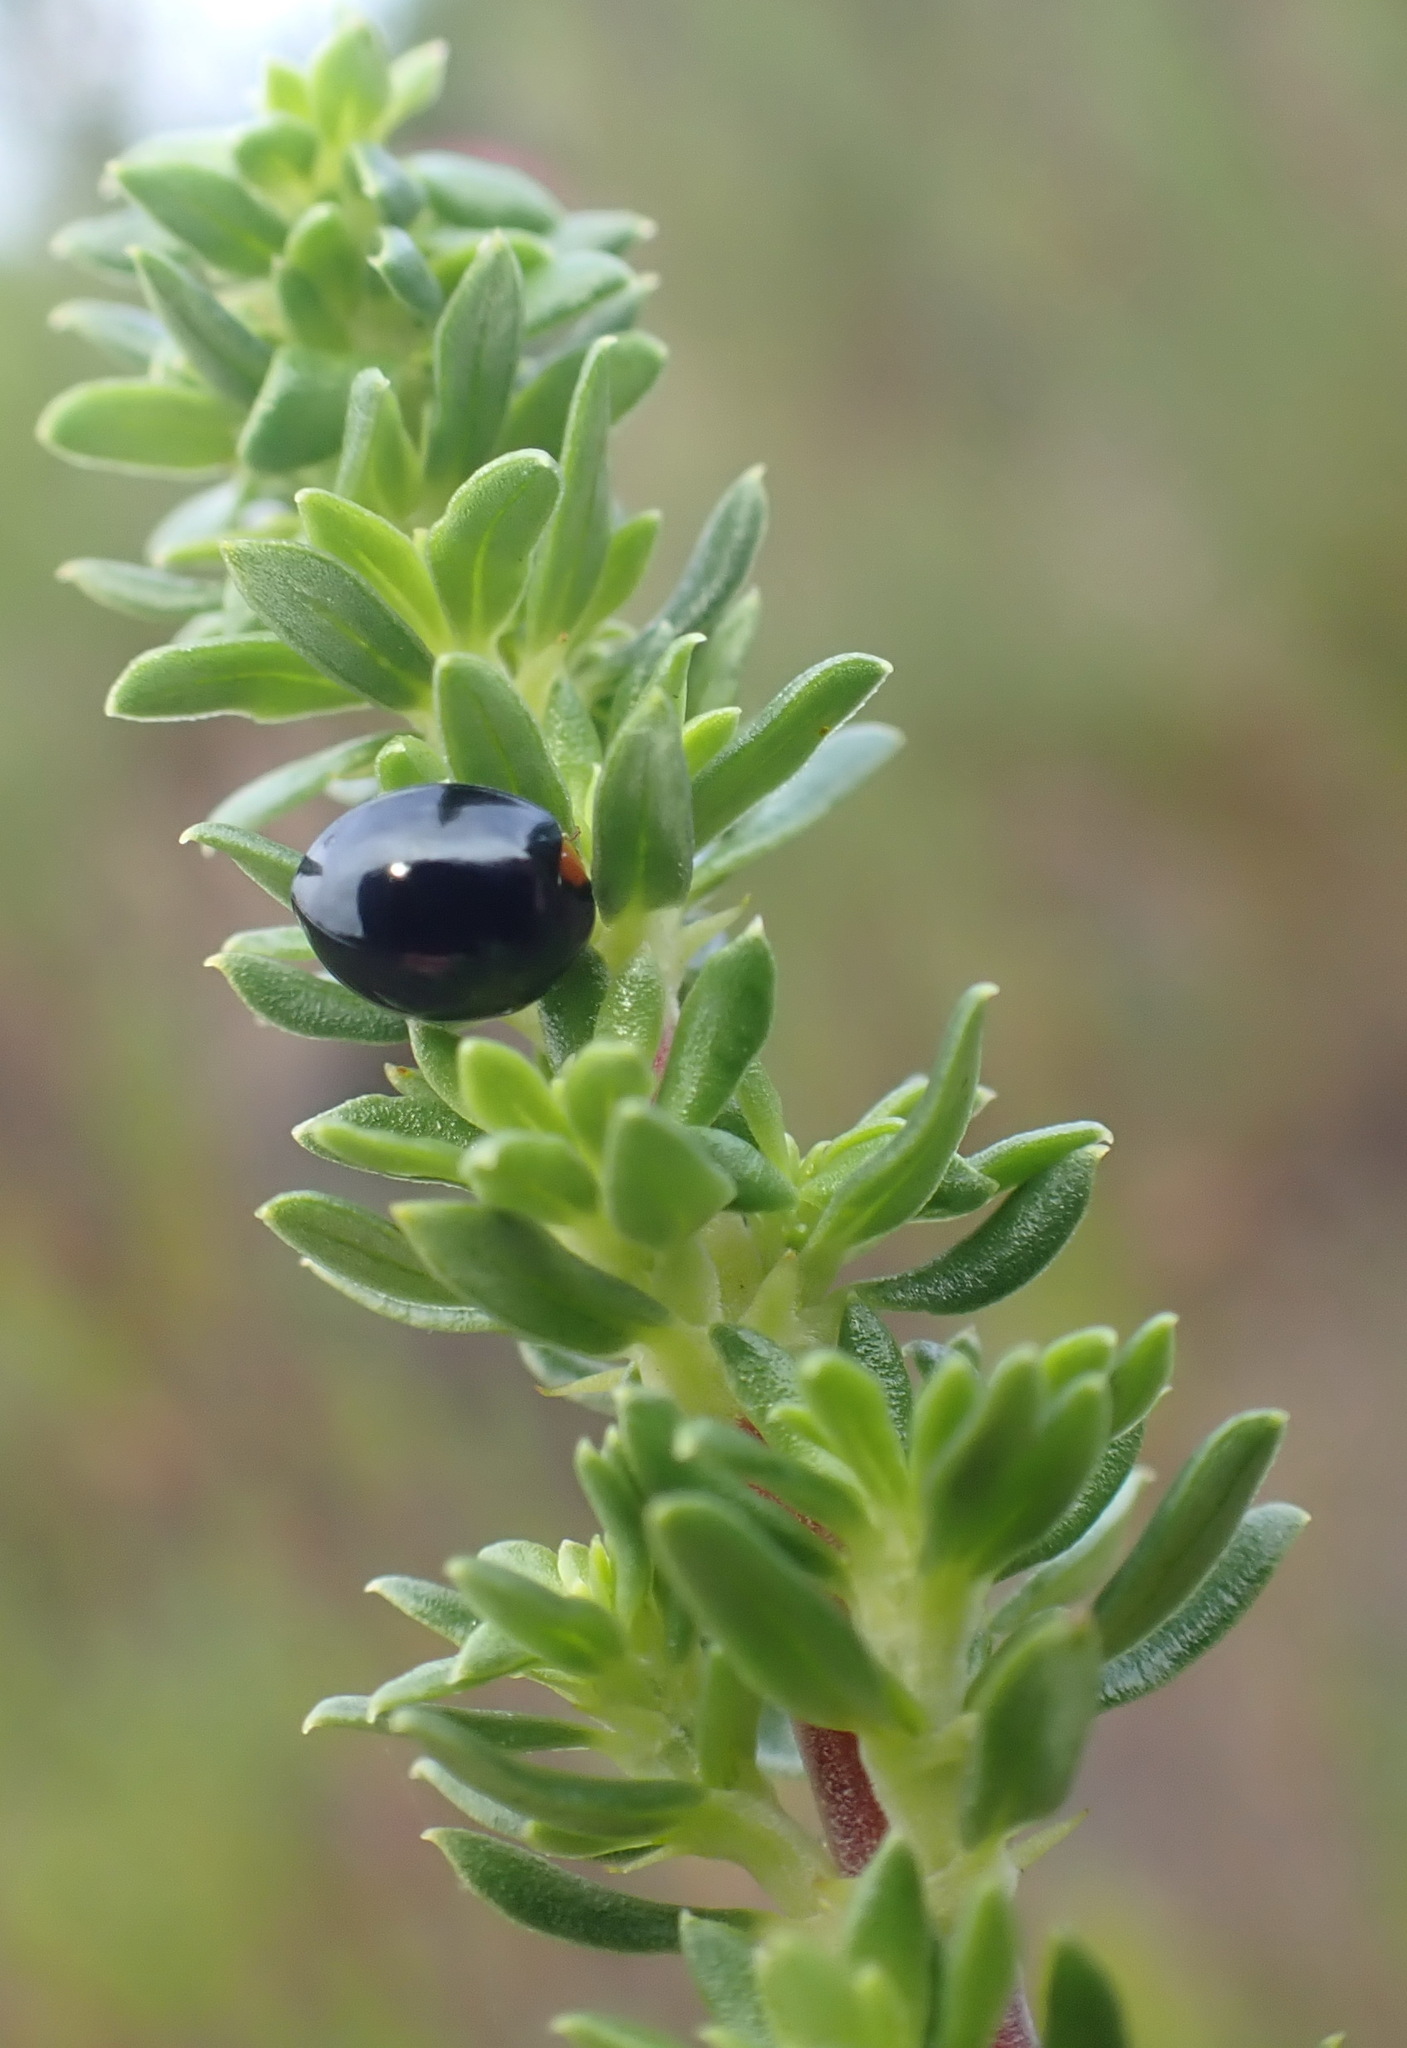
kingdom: Plantae
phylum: Tracheophyta
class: Magnoliopsida
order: Gentianales
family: Rubiaceae
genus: Anthospermum
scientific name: Anthospermum aethiopicum
